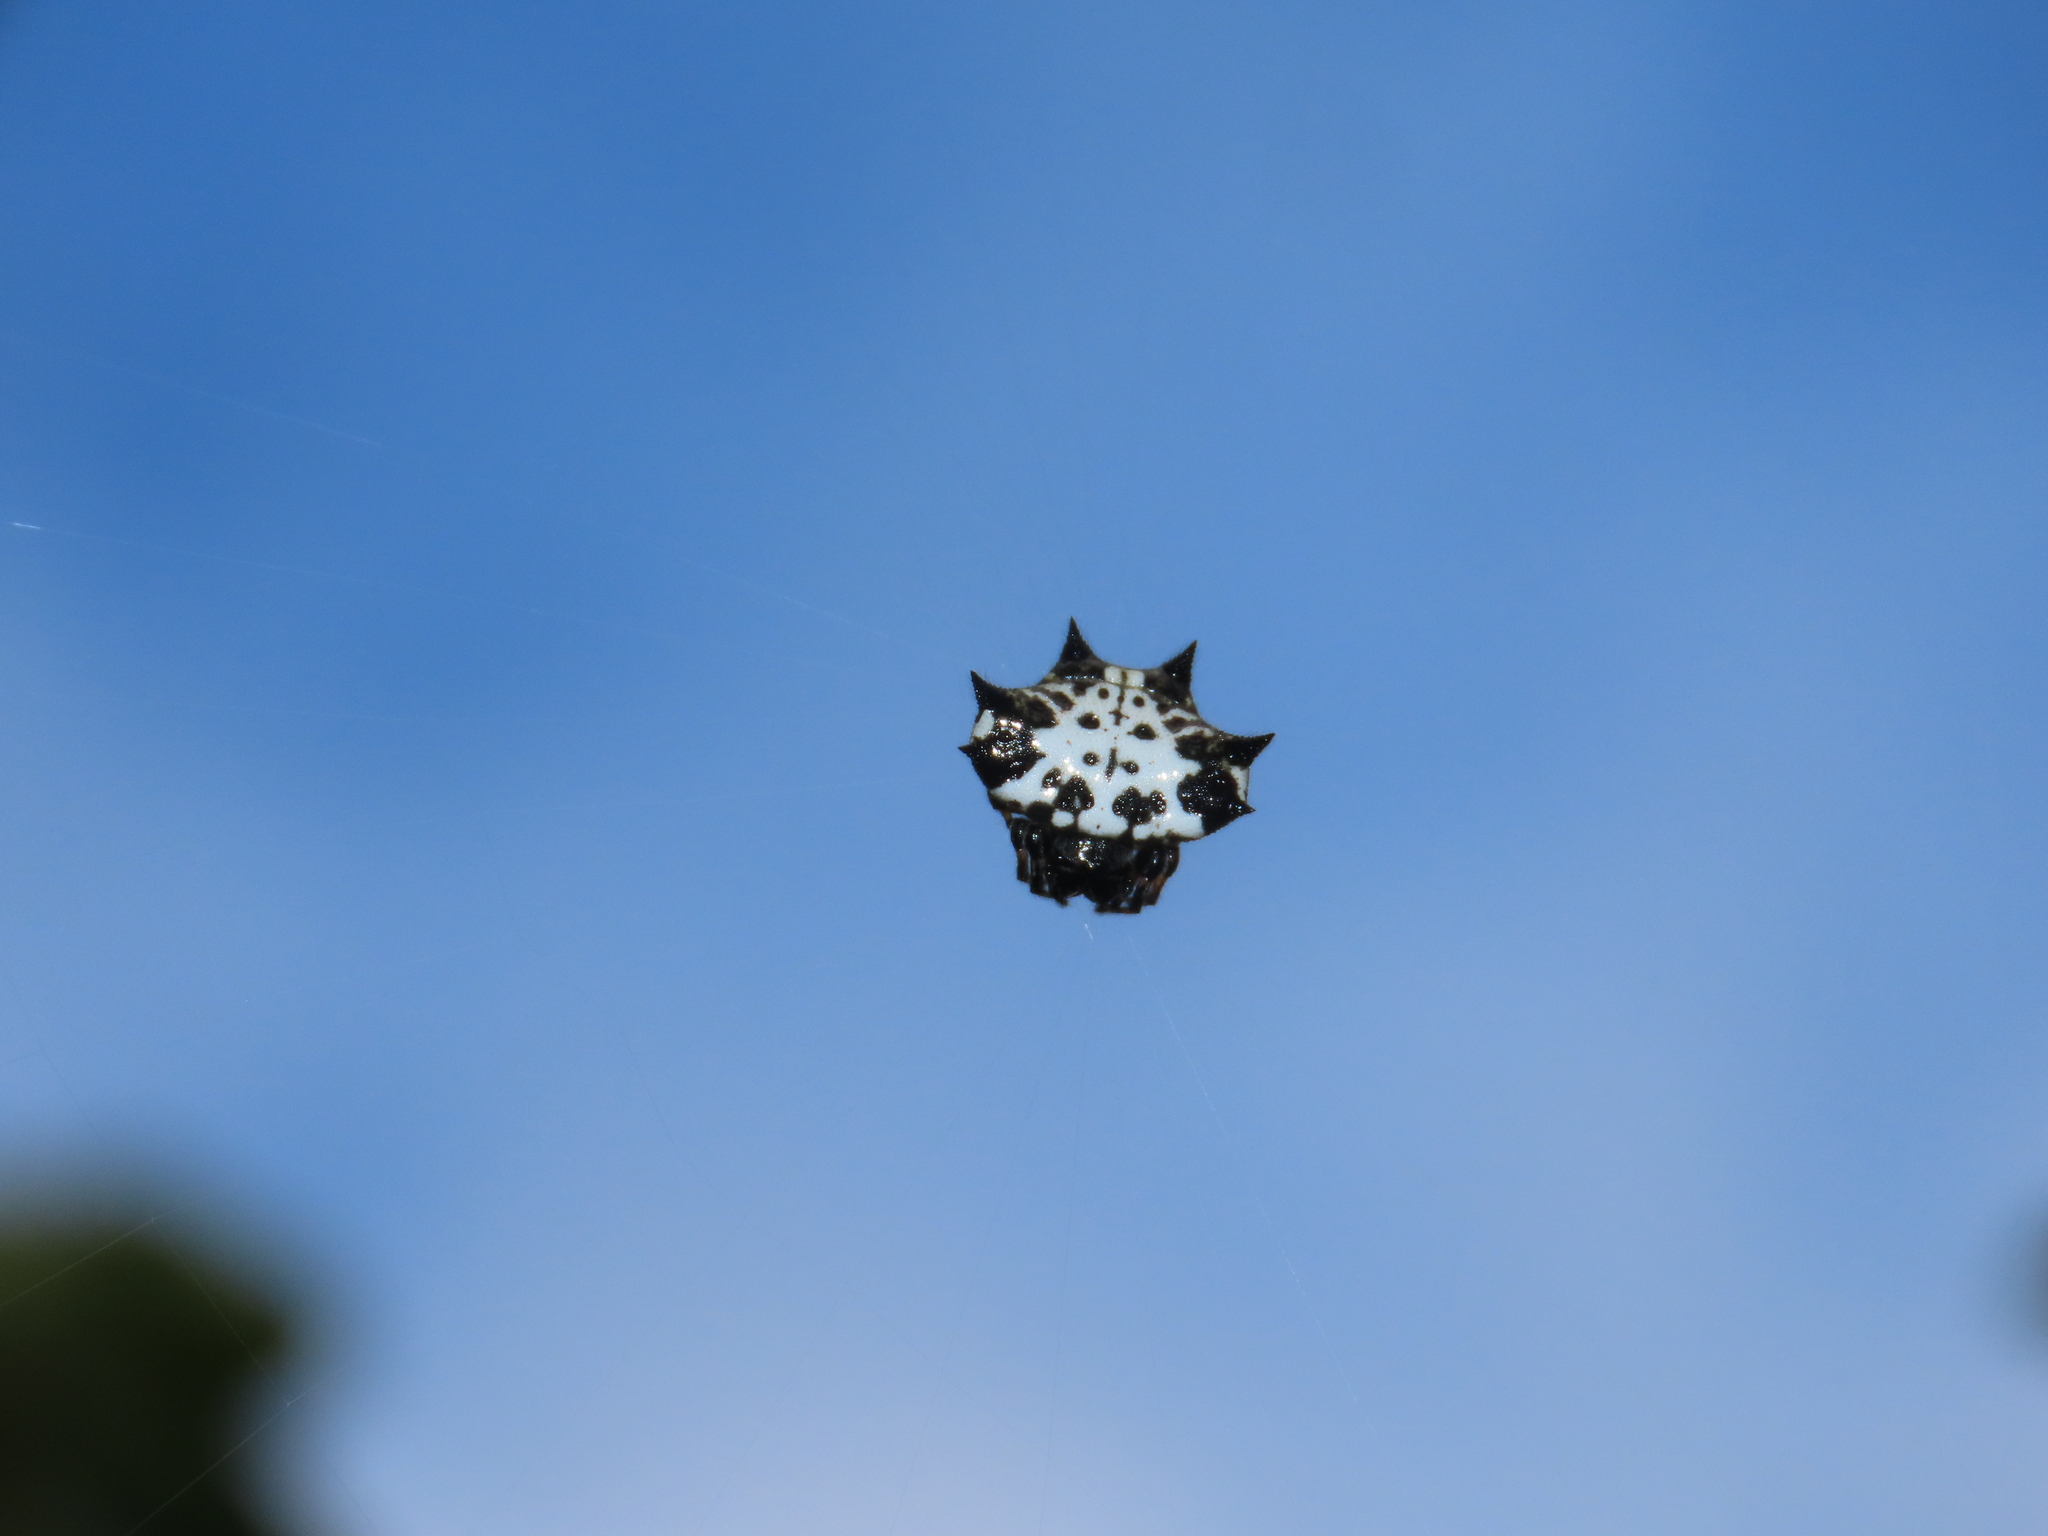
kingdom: Animalia
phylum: Arthropoda
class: Arachnida
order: Araneae
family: Araneidae
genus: Gasteracantha
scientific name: Gasteracantha kuhli
